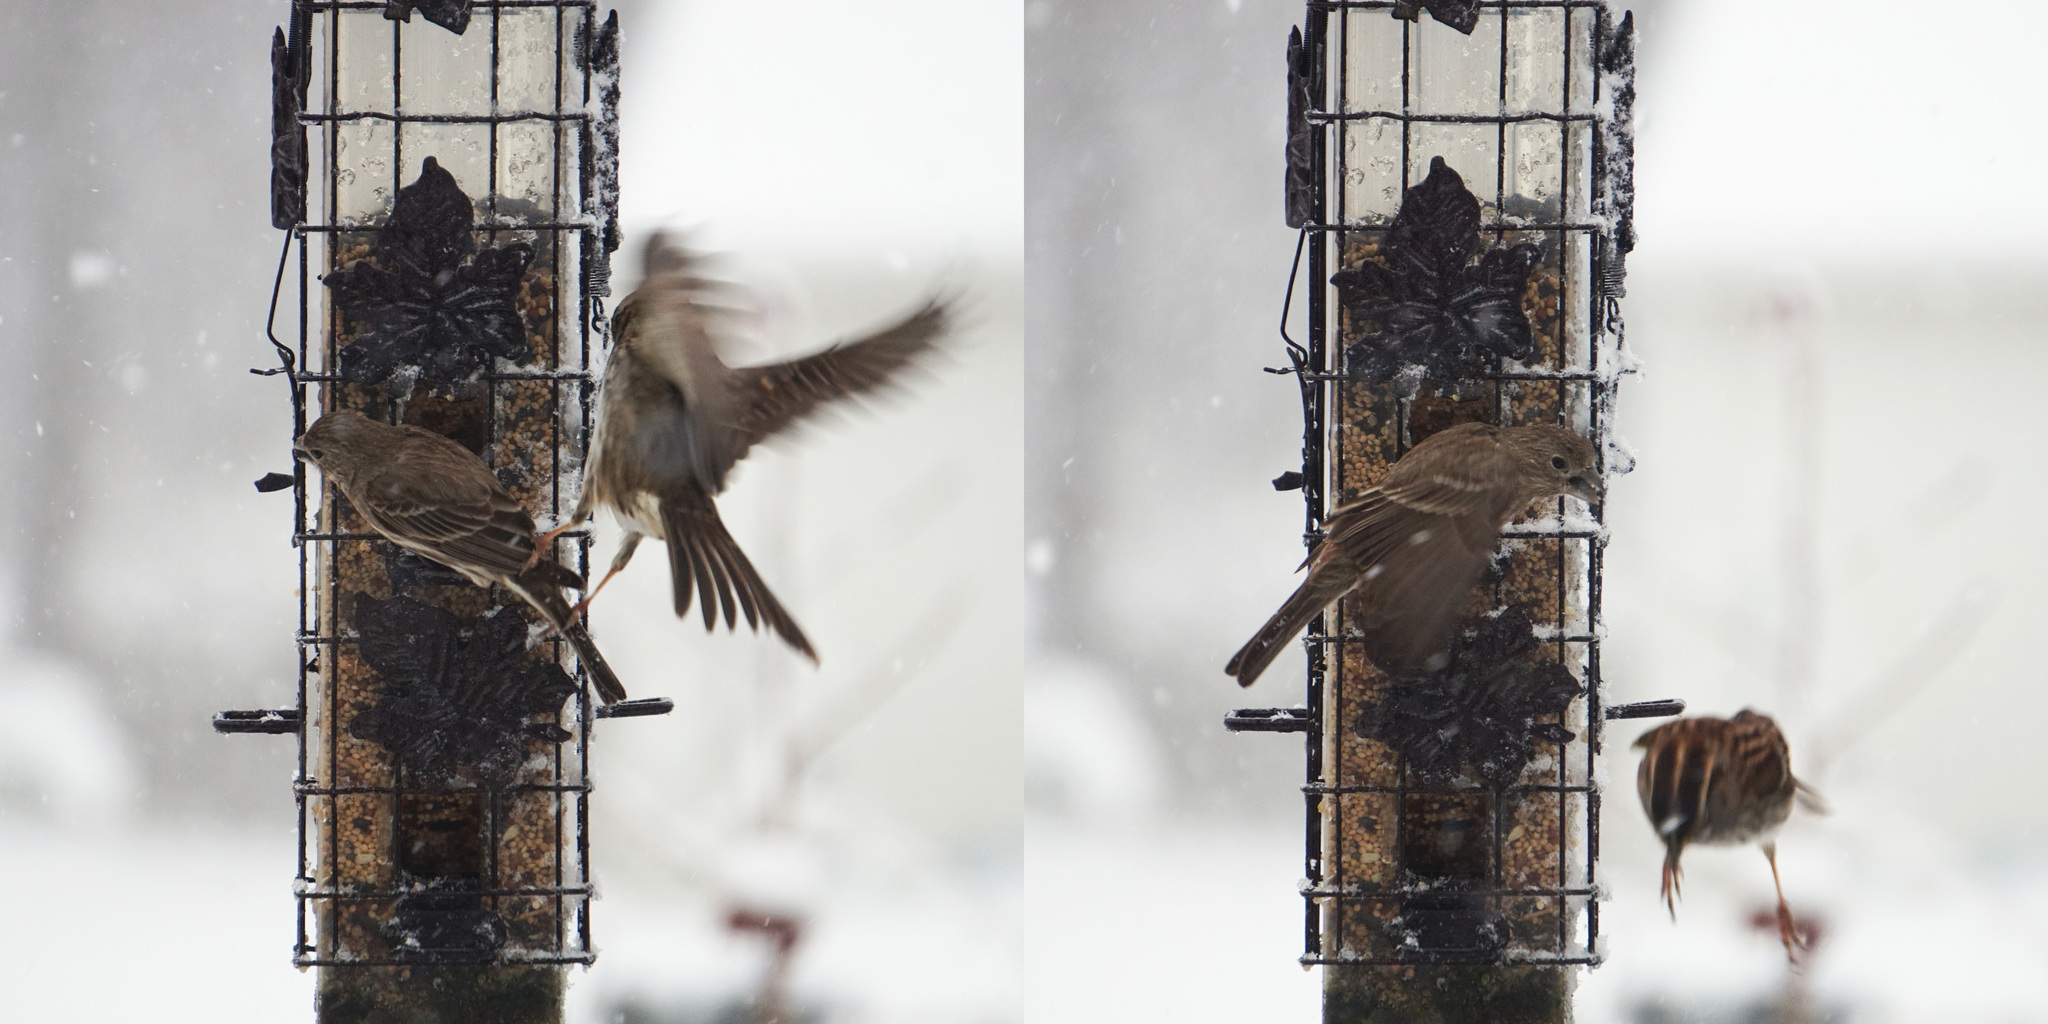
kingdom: Animalia
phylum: Chordata
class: Aves
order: Passeriformes
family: Fringillidae
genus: Haemorhous
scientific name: Haemorhous mexicanus
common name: House finch
